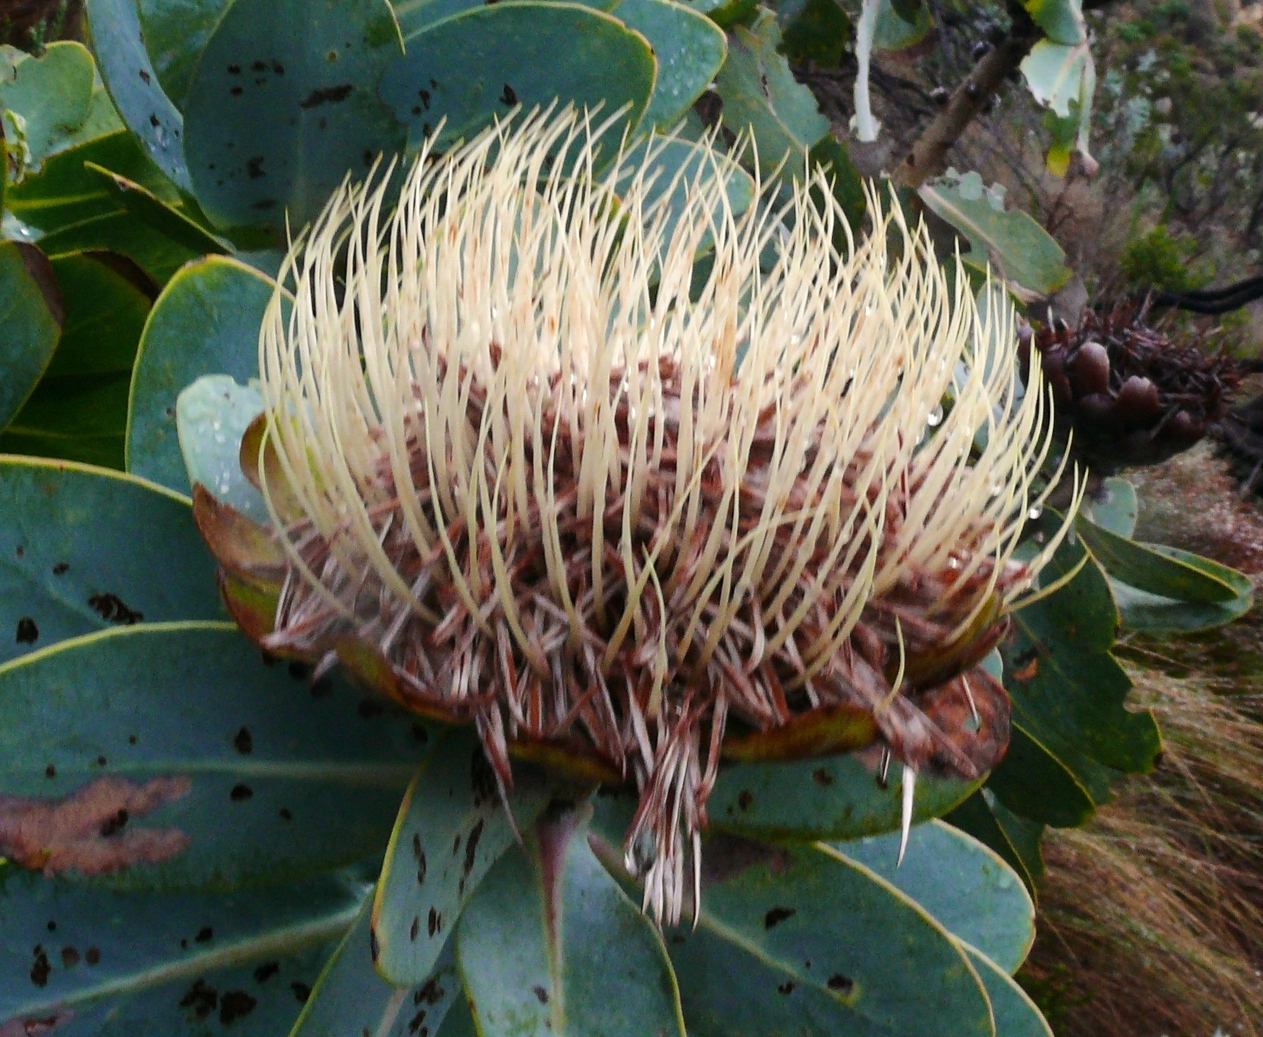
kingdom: Plantae
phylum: Tracheophyta
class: Magnoliopsida
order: Proteales
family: Proteaceae
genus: Protea
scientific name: Protea nitida
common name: Tree protea
